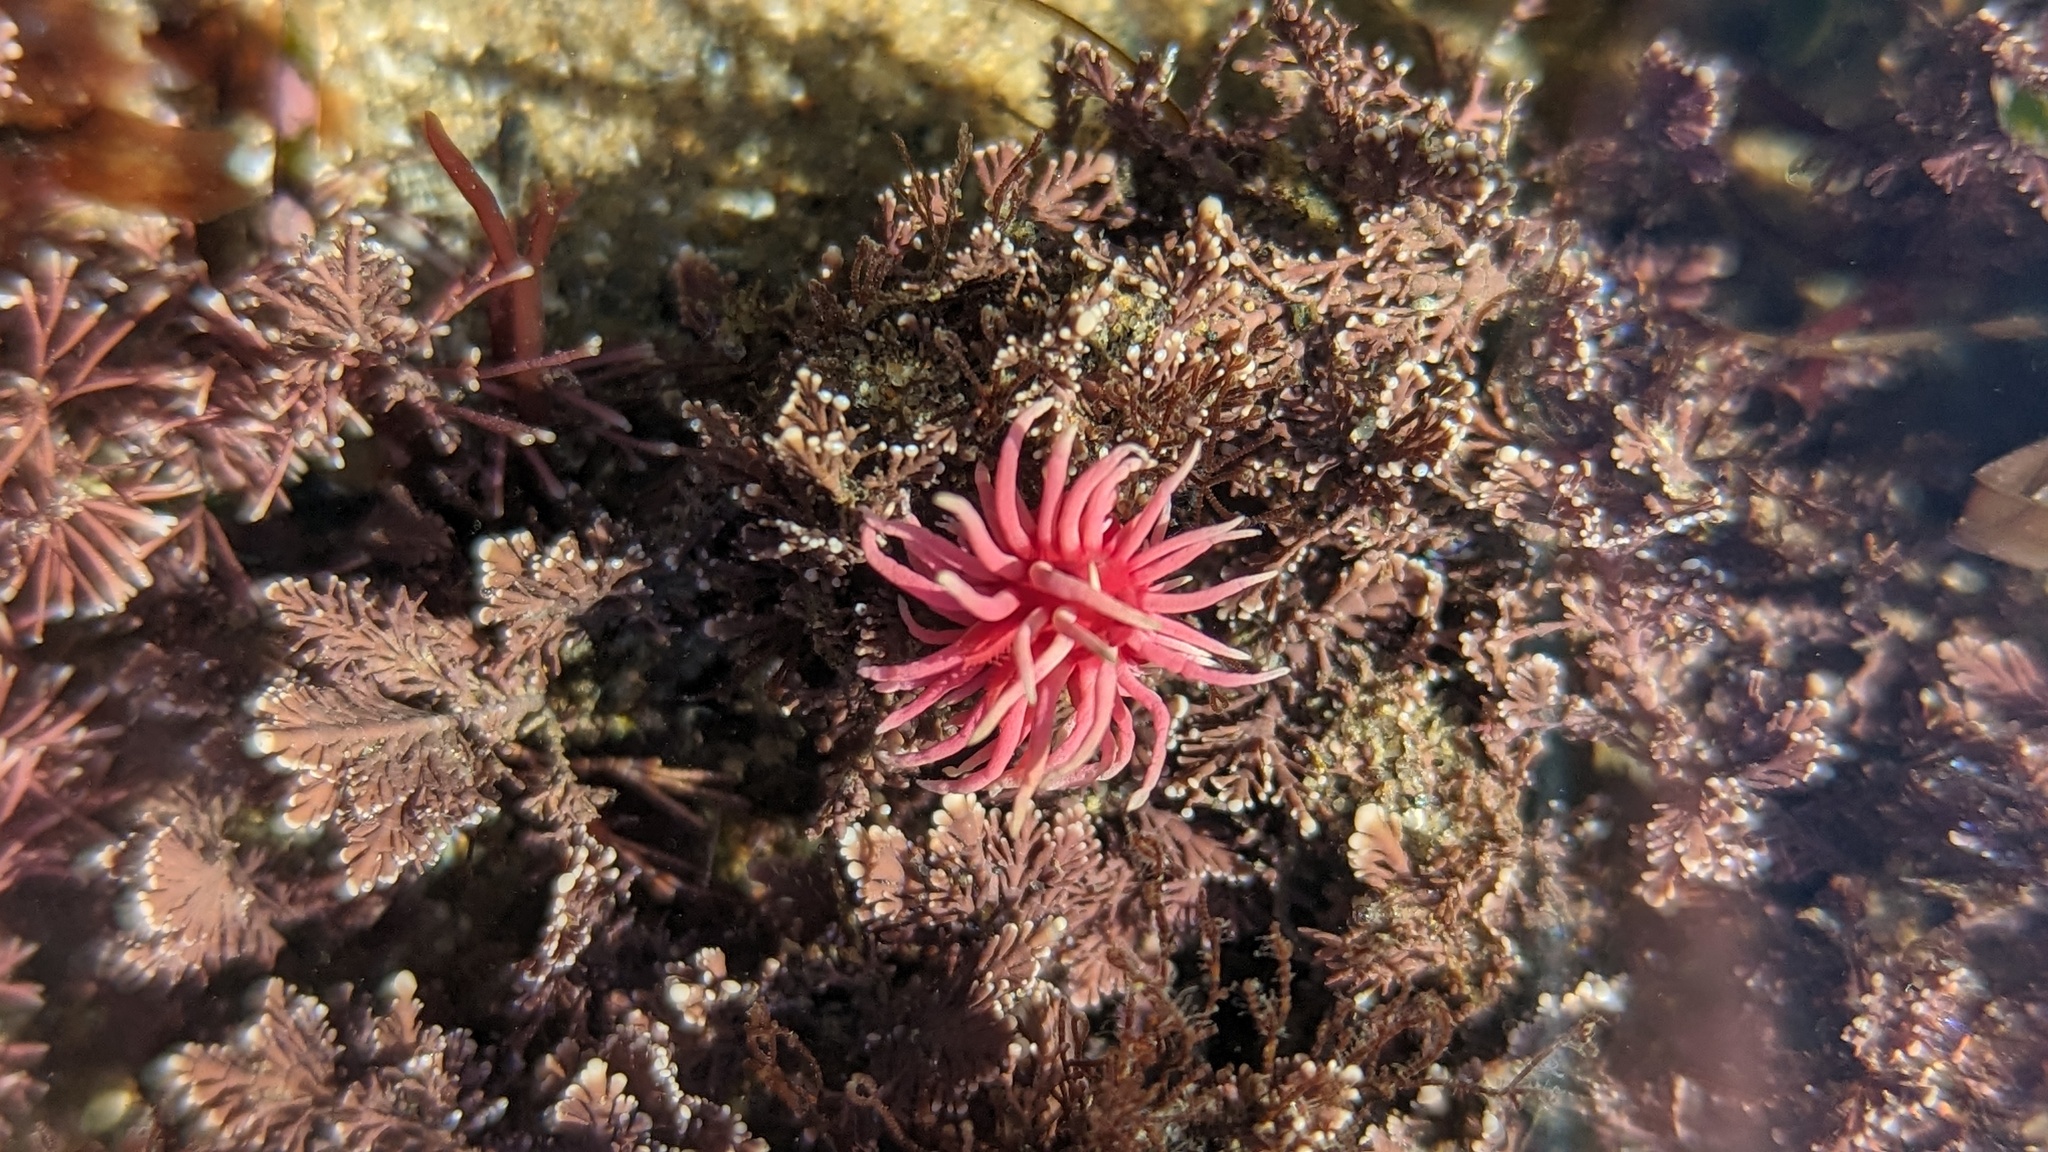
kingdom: Animalia
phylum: Mollusca
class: Gastropoda
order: Nudibranchia
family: Goniodorididae
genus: Okenia
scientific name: Okenia
